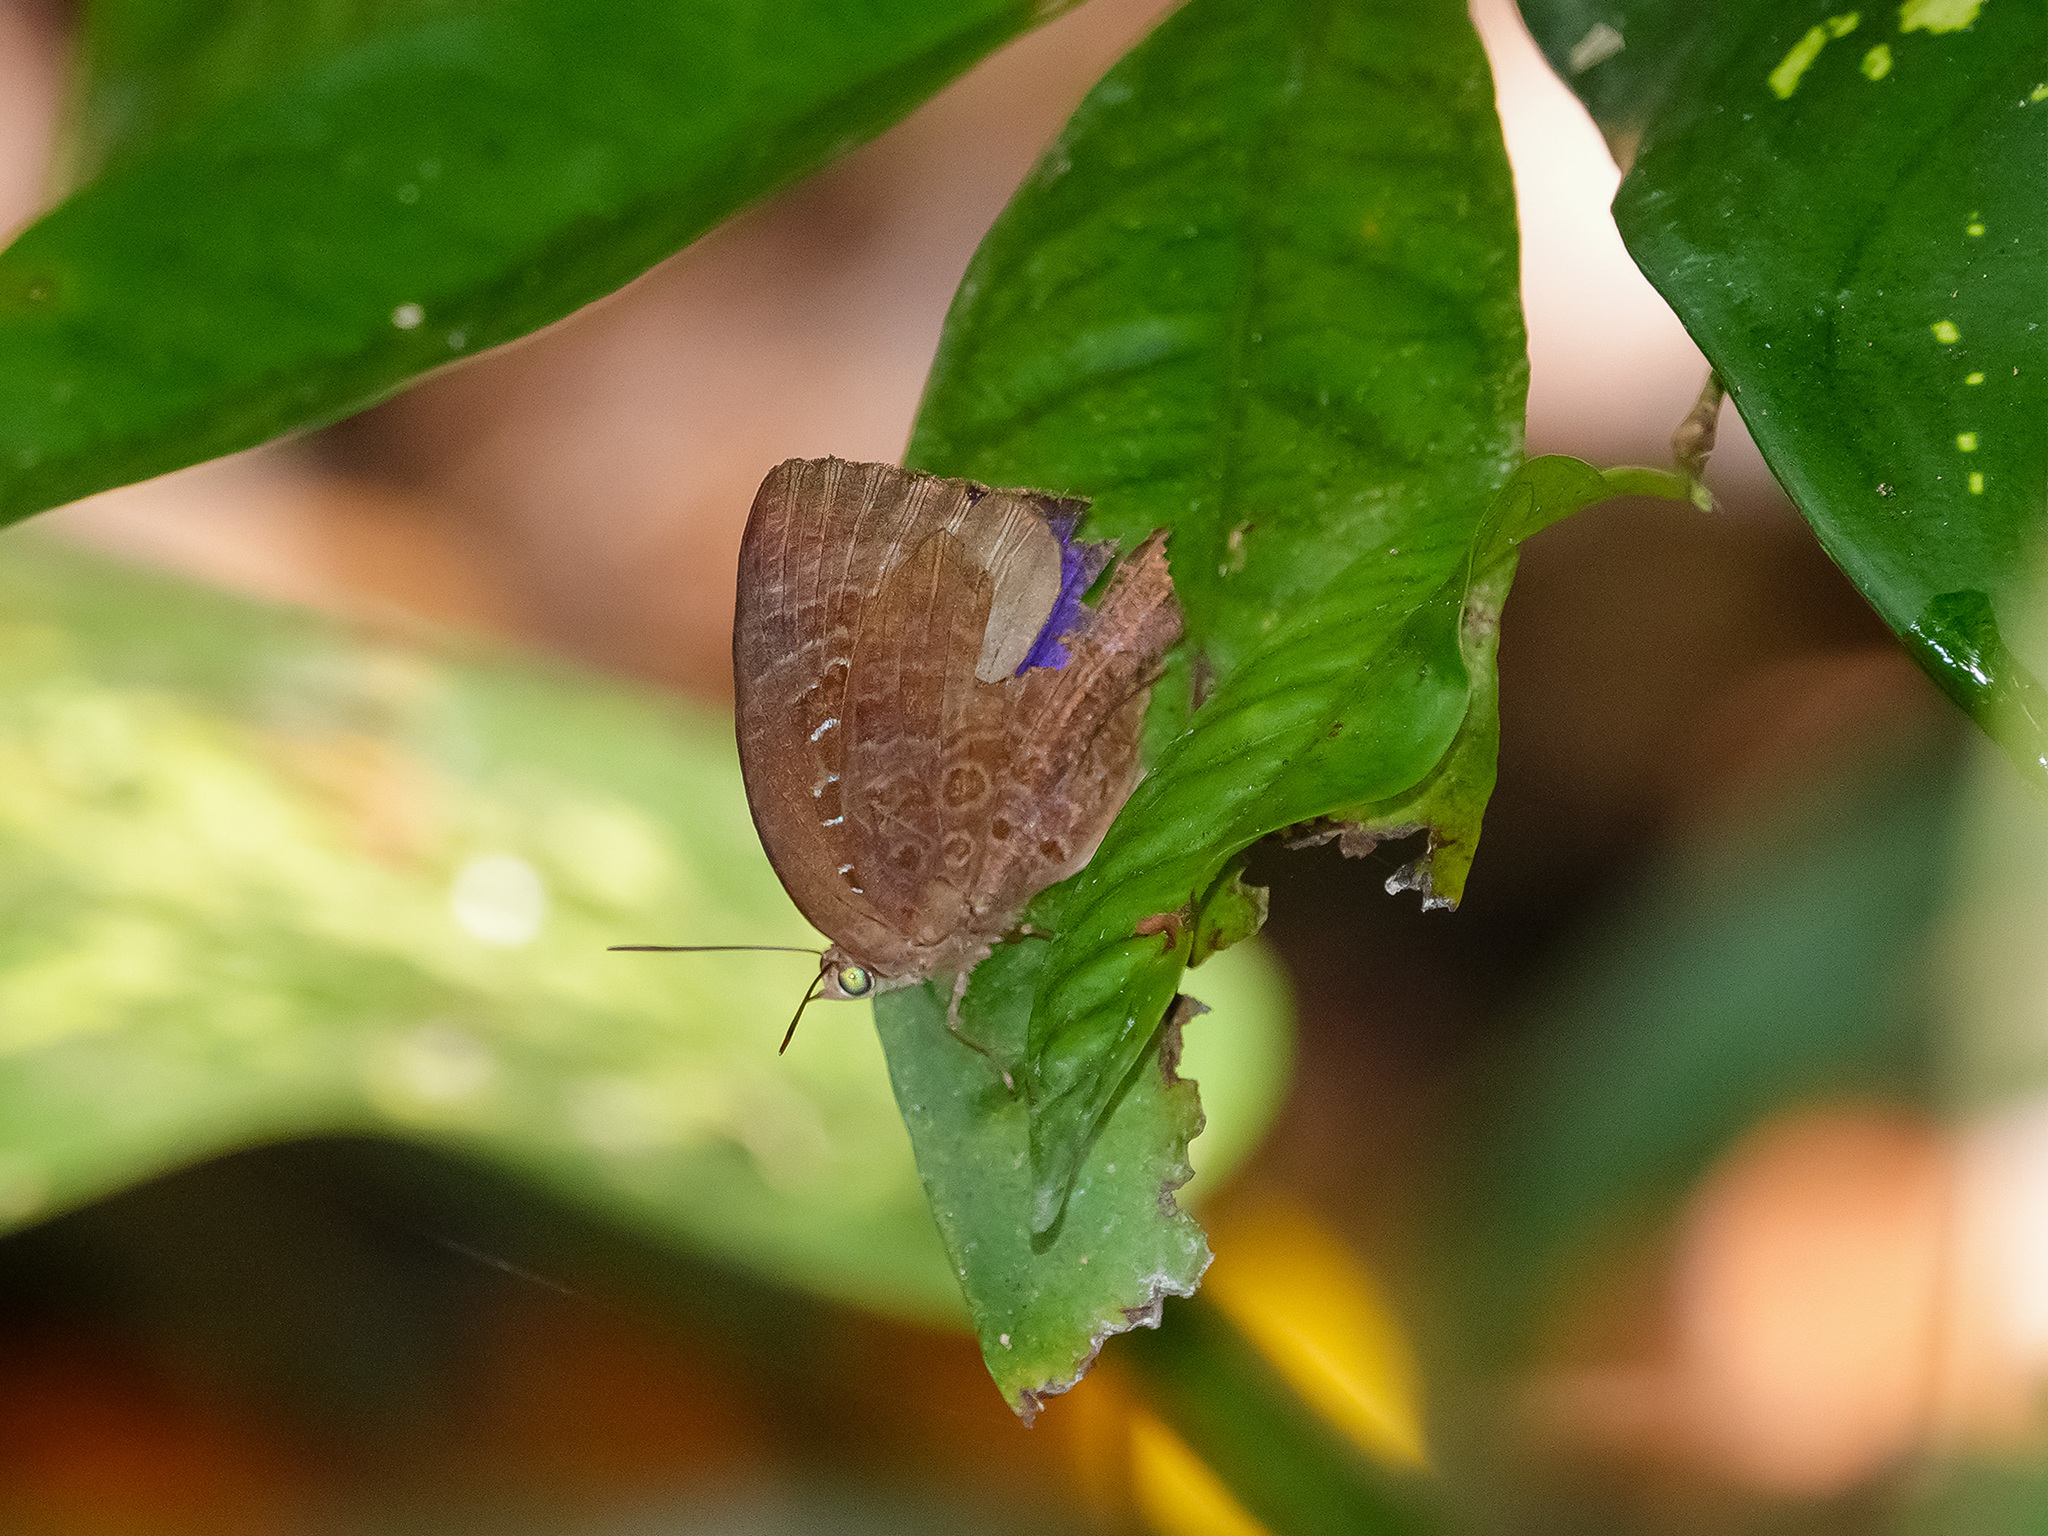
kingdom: Animalia
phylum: Arthropoda
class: Insecta
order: Lepidoptera
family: Lycaenidae
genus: Arhopala
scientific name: Arhopala centaurus
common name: Dull oak-blue
